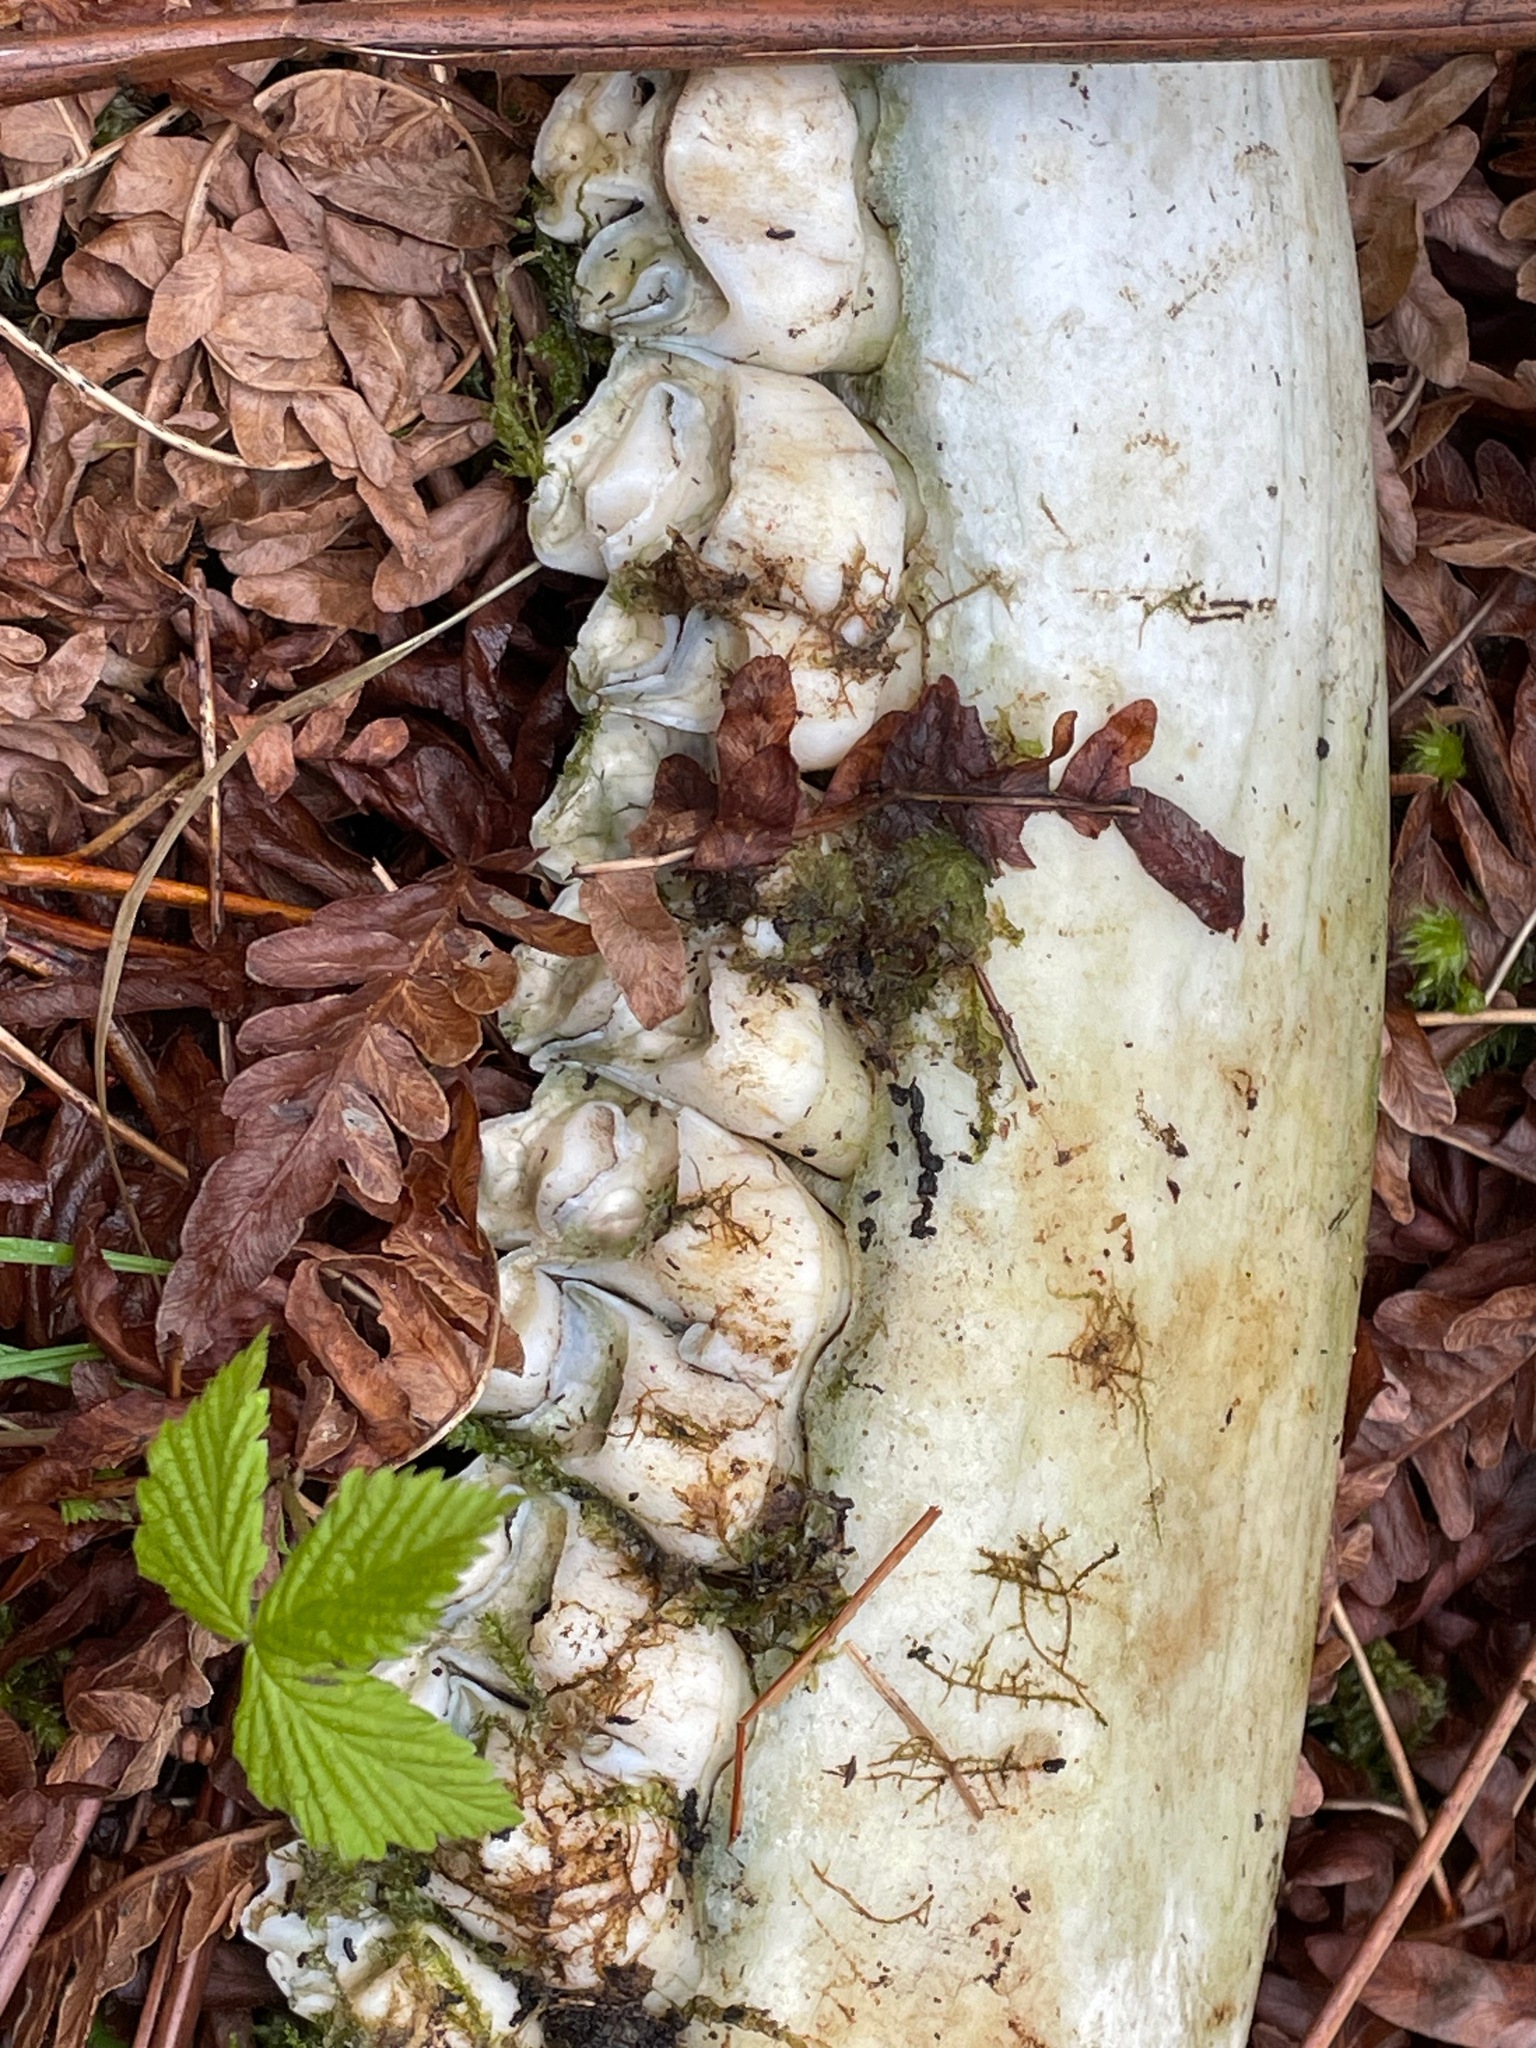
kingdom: Animalia
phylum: Chordata
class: Mammalia
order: Artiodactyla
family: Cervidae
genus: Alces
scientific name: Alces alces
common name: Moose
